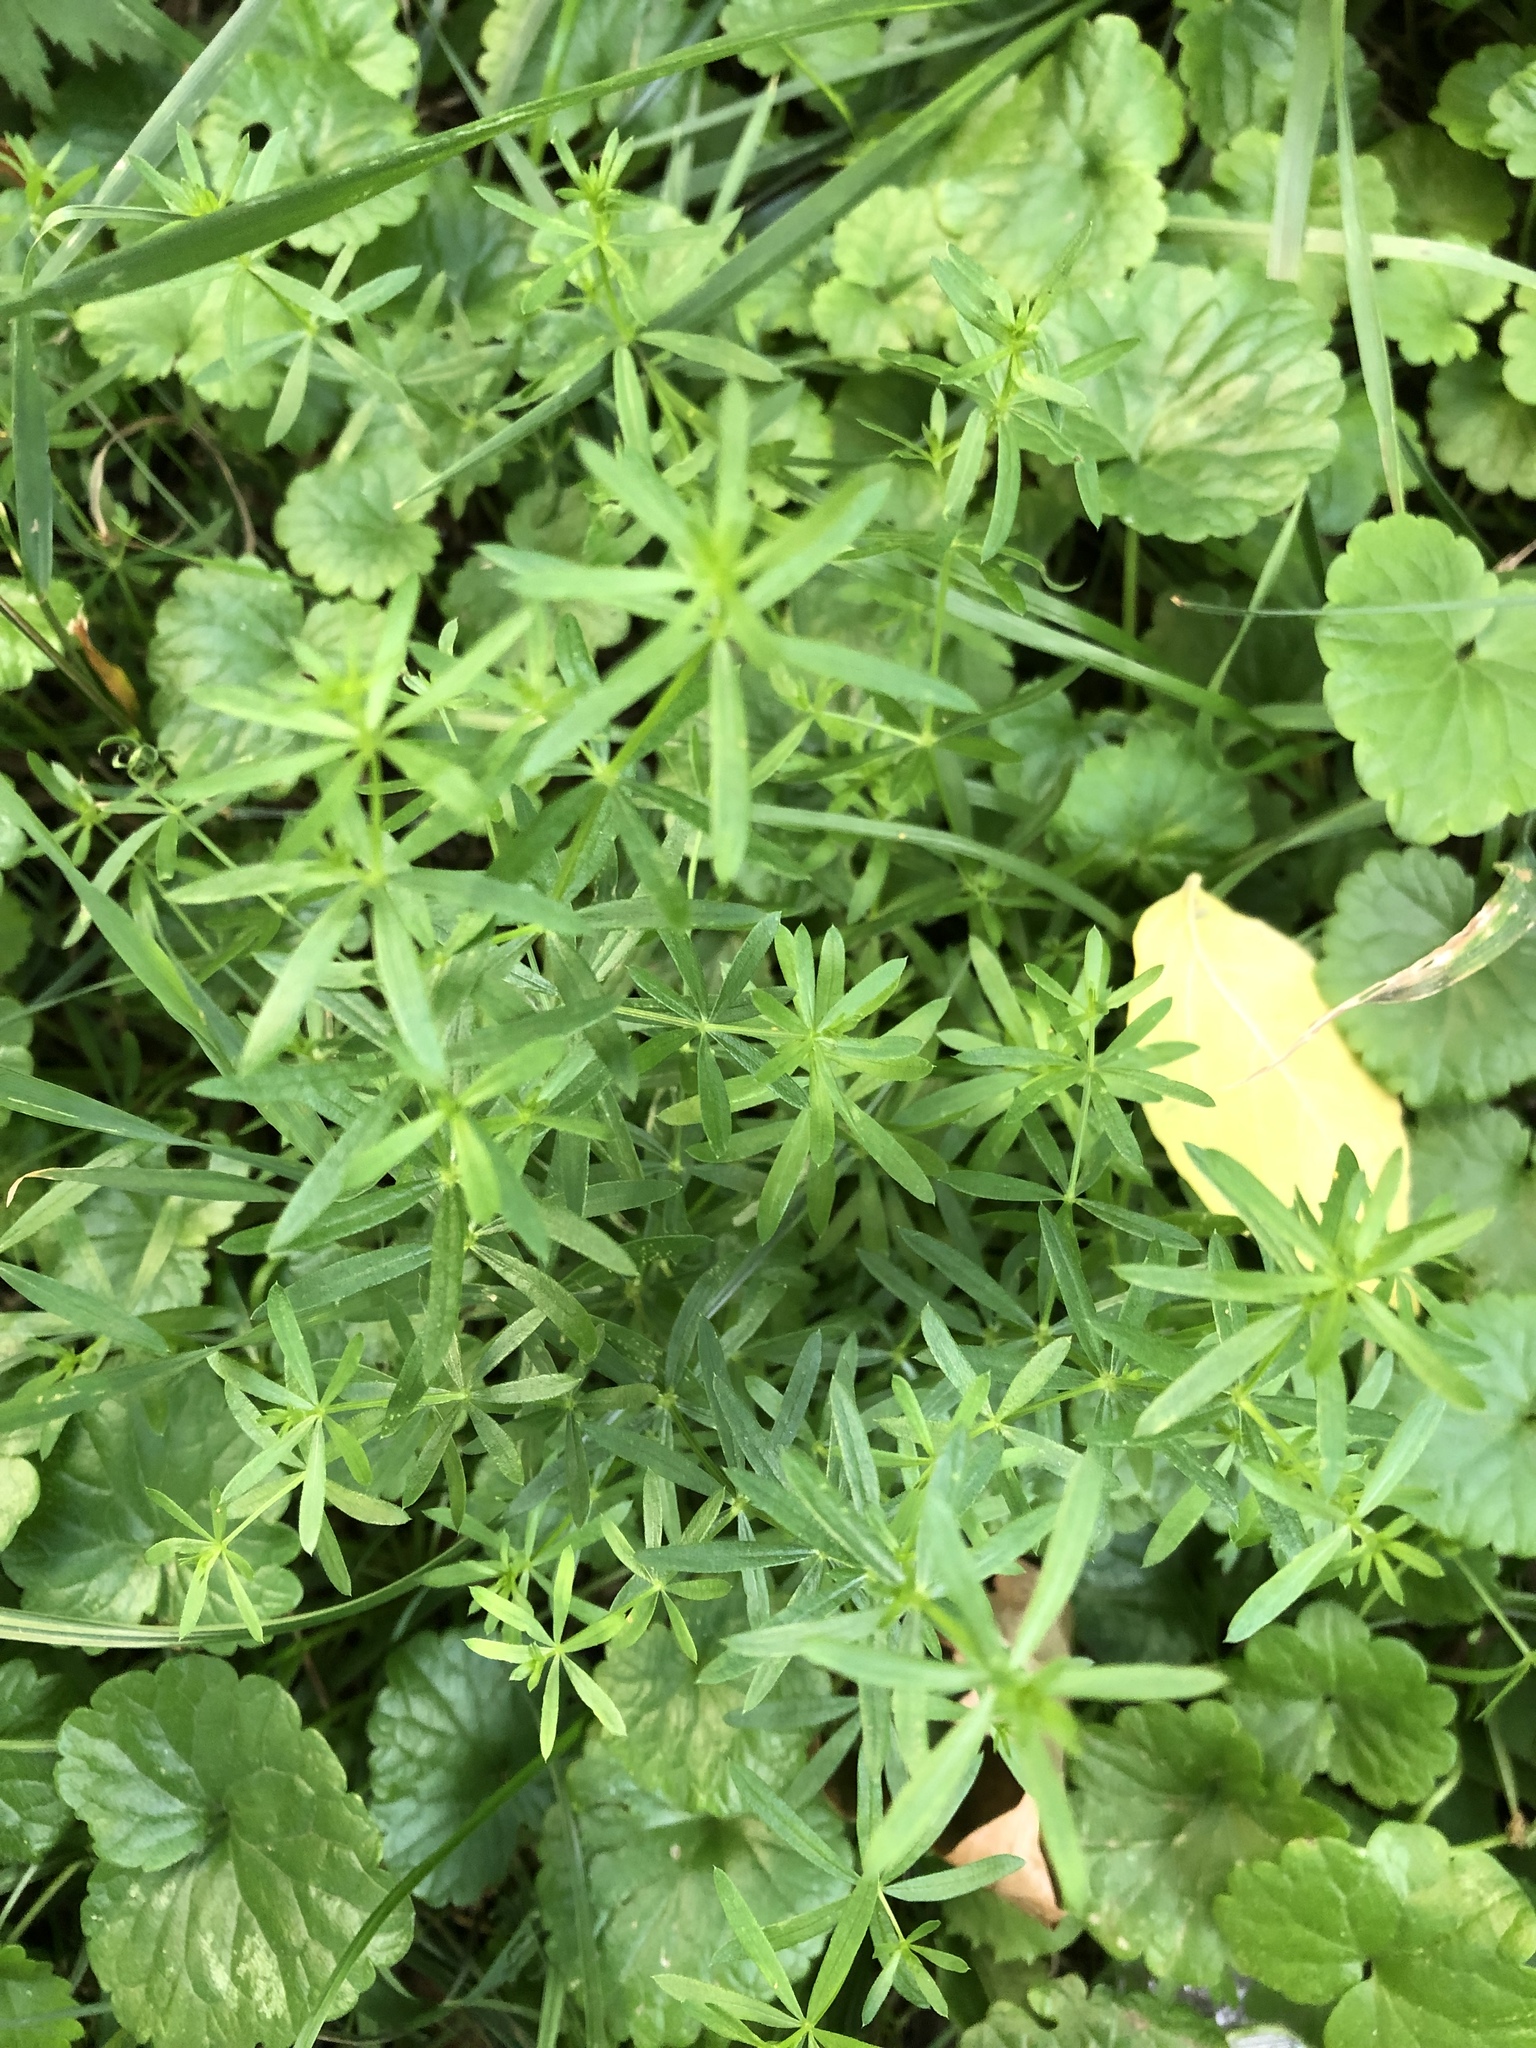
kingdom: Plantae
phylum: Tracheophyta
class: Magnoliopsida
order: Gentianales
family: Rubiaceae
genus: Galium
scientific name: Galium mollugo
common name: Hedge bedstraw
